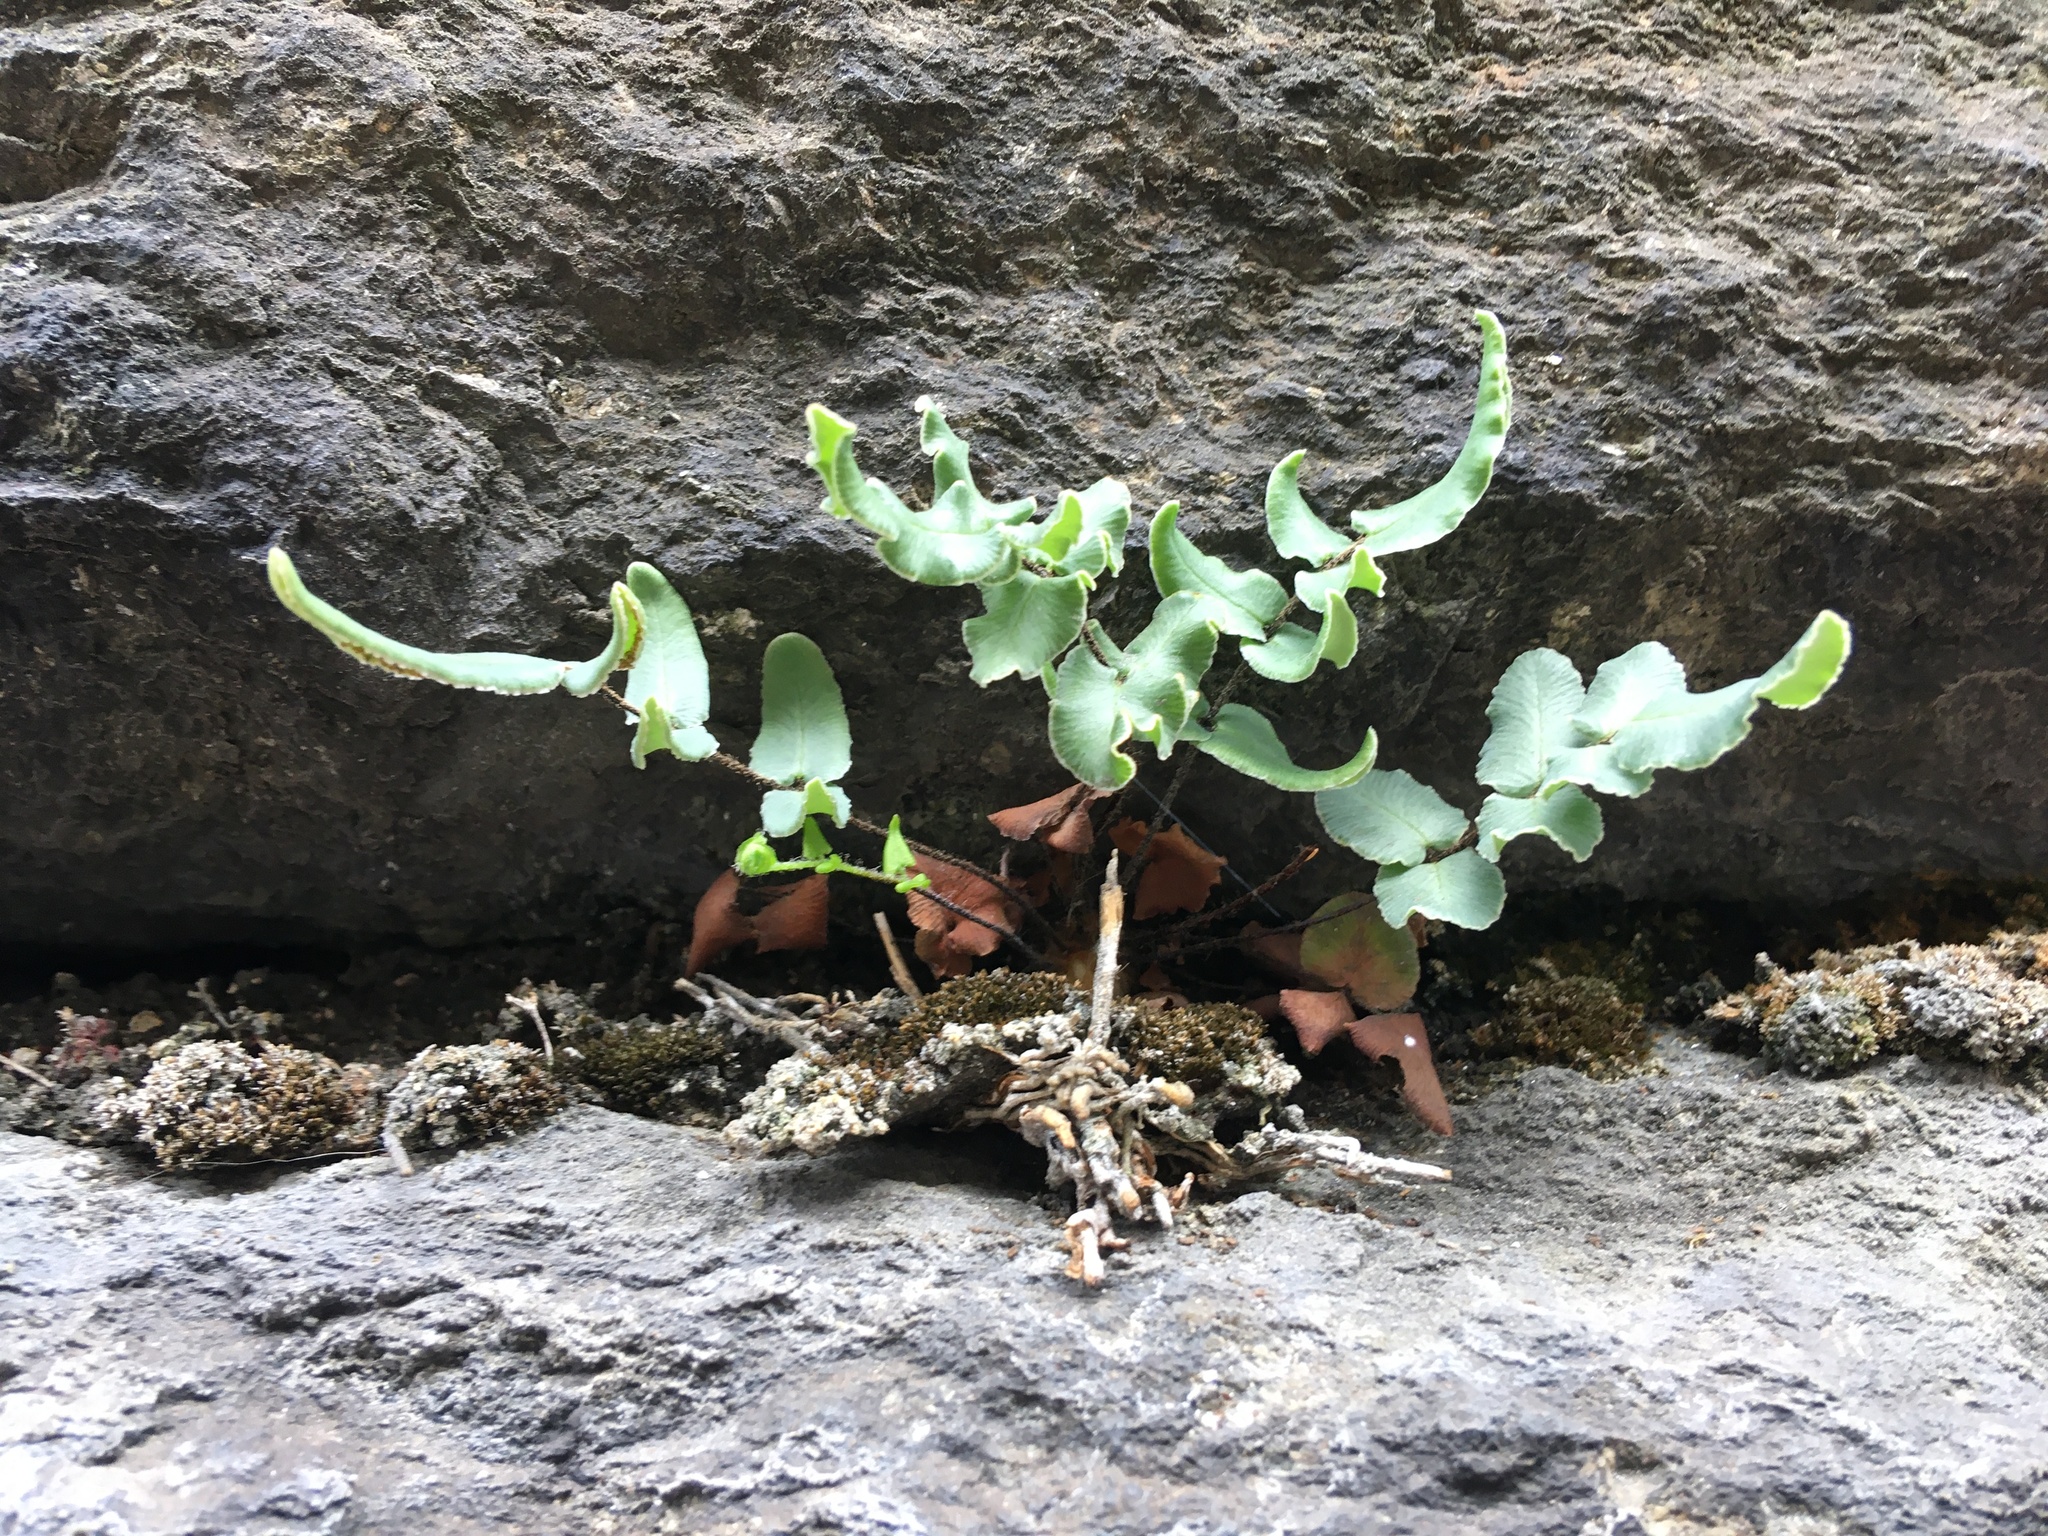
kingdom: Plantae
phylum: Tracheophyta
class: Polypodiopsida
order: Polypodiales
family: Pteridaceae
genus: Pellaea
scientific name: Pellaea atropurpurea
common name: Hairy cliffbrake
